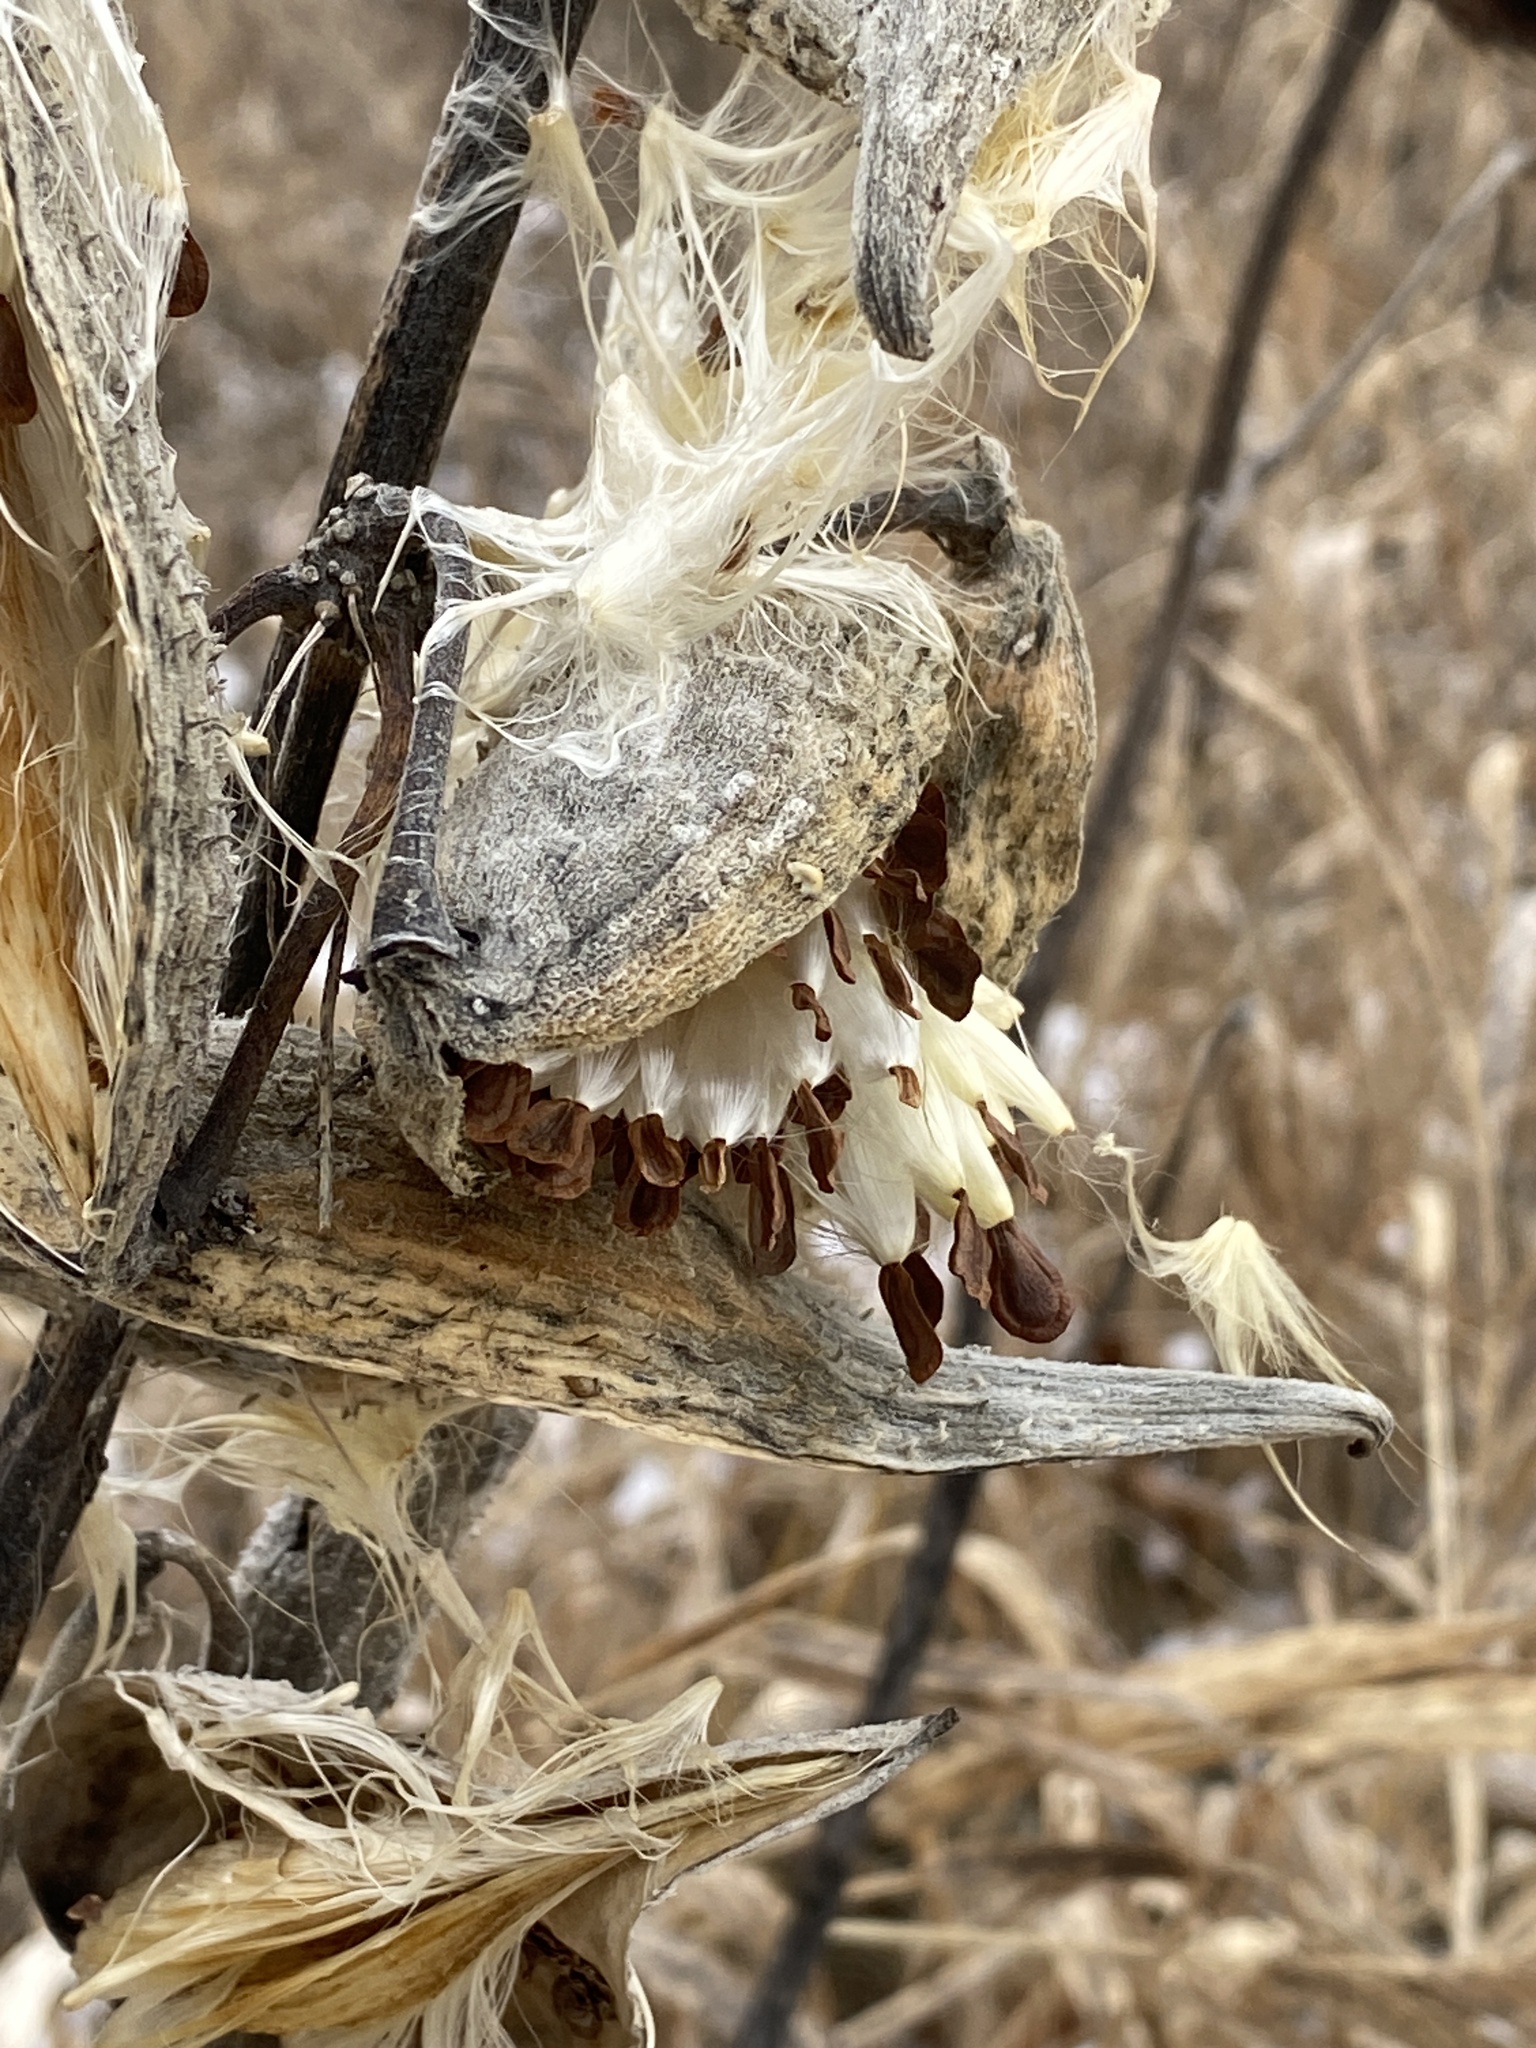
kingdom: Plantae
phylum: Tracheophyta
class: Magnoliopsida
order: Gentianales
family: Apocynaceae
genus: Asclepias
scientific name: Asclepias syriaca
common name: Common milkweed
